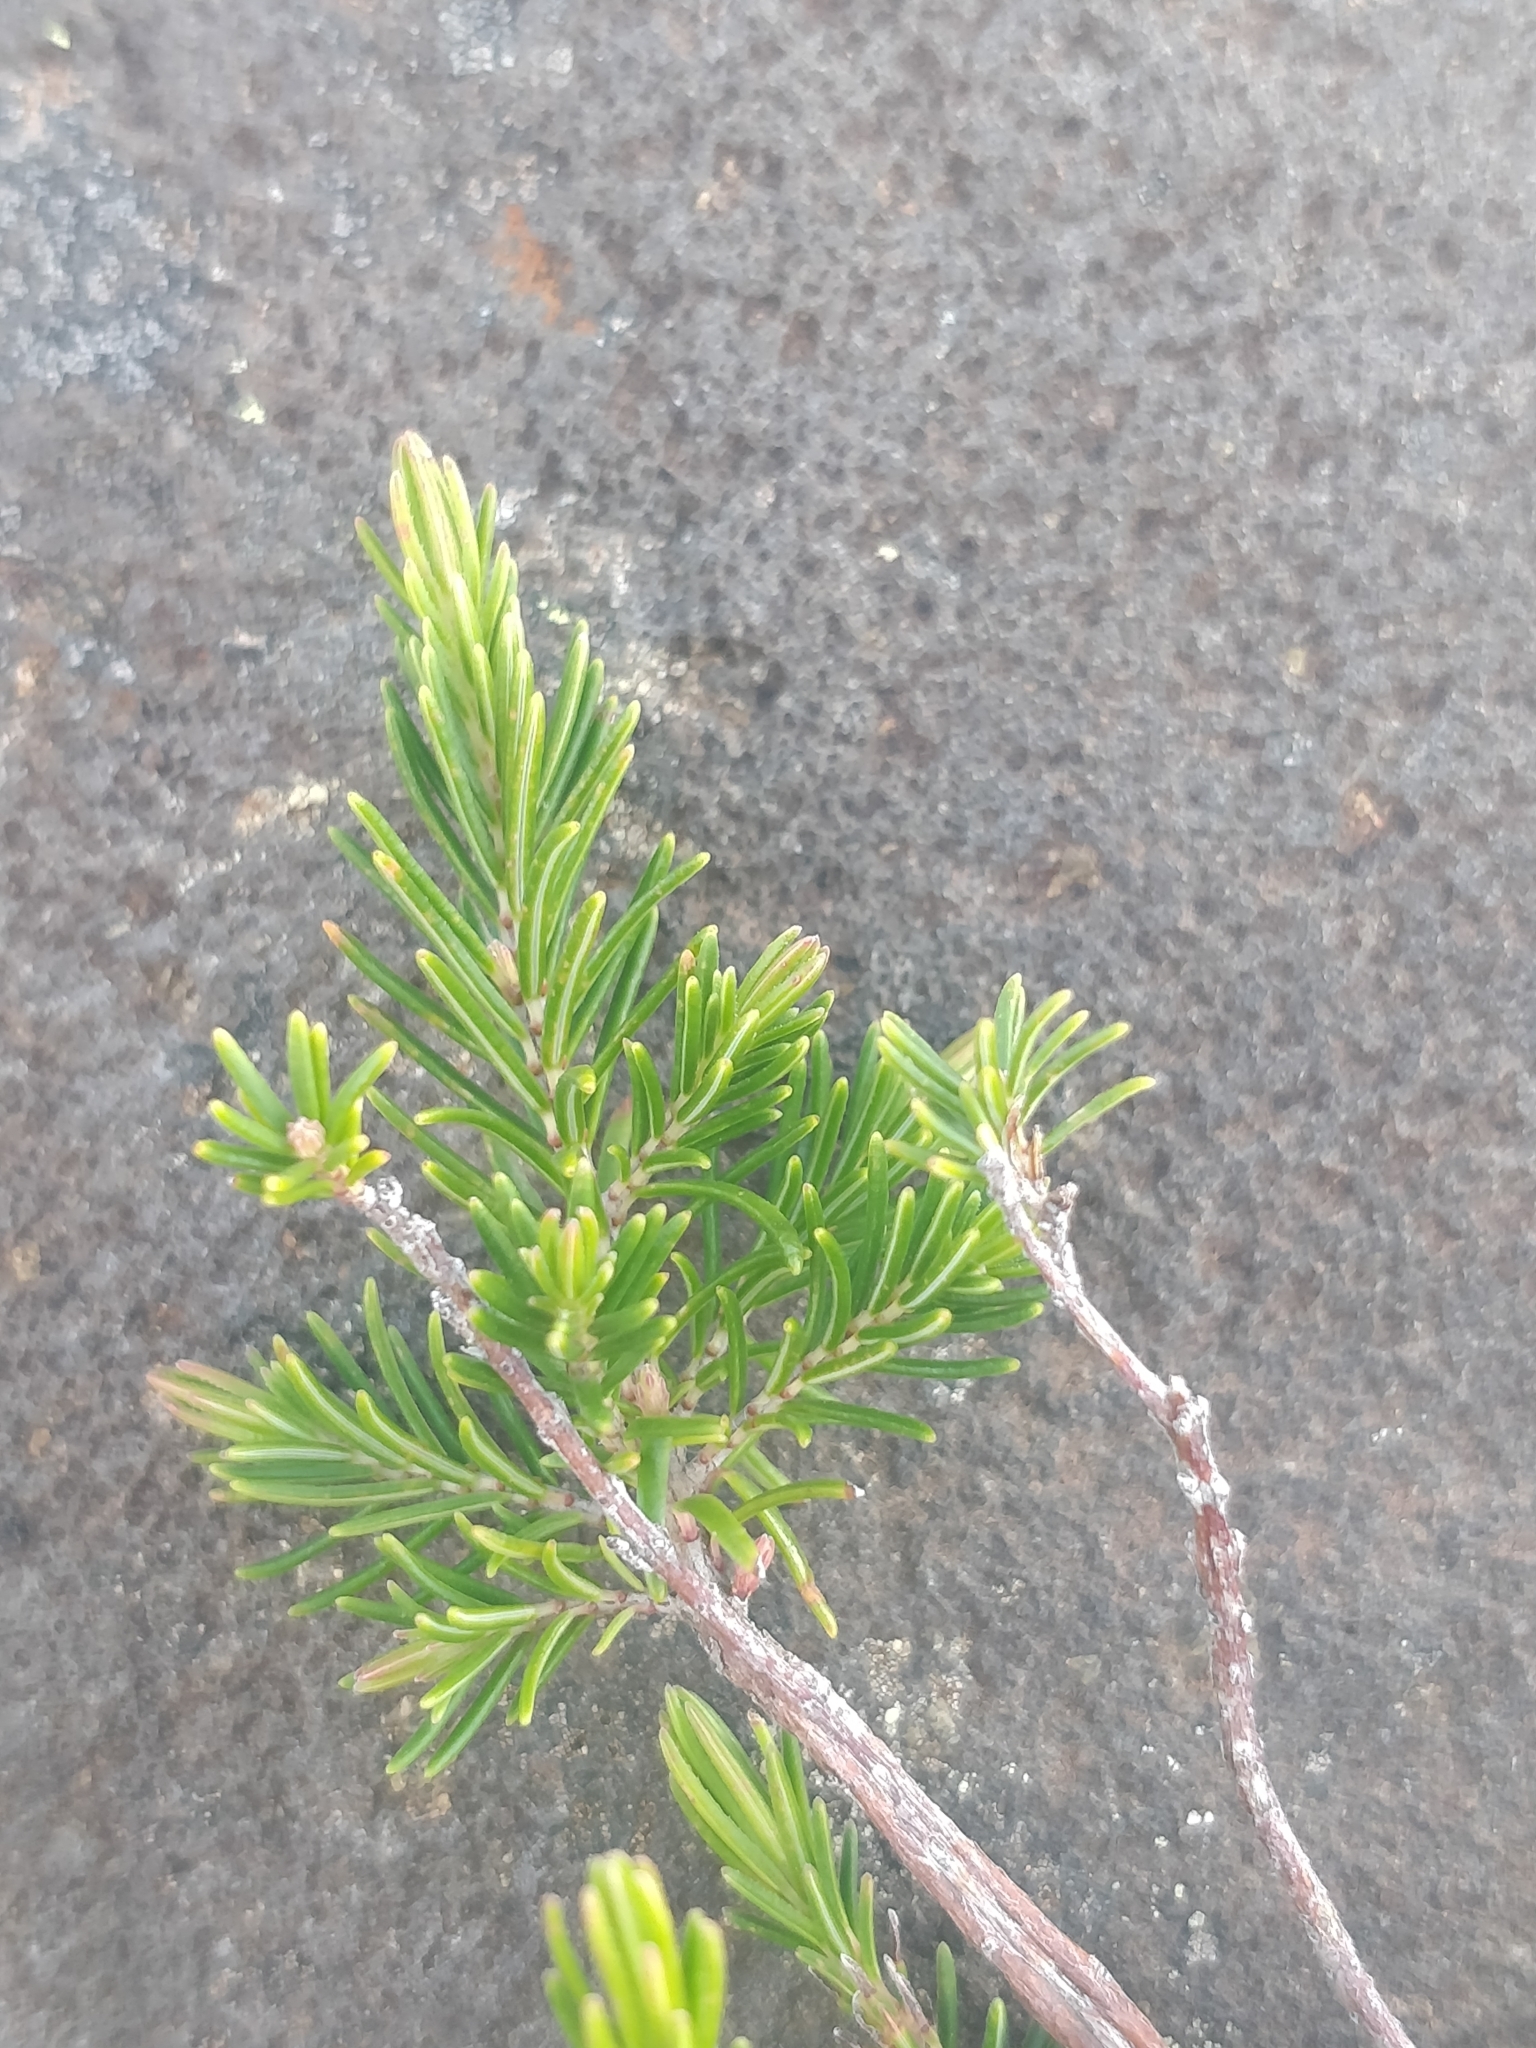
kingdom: Plantae
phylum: Tracheophyta
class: Magnoliopsida
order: Ericales
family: Ericaceae
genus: Erica
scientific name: Erica maderensis
